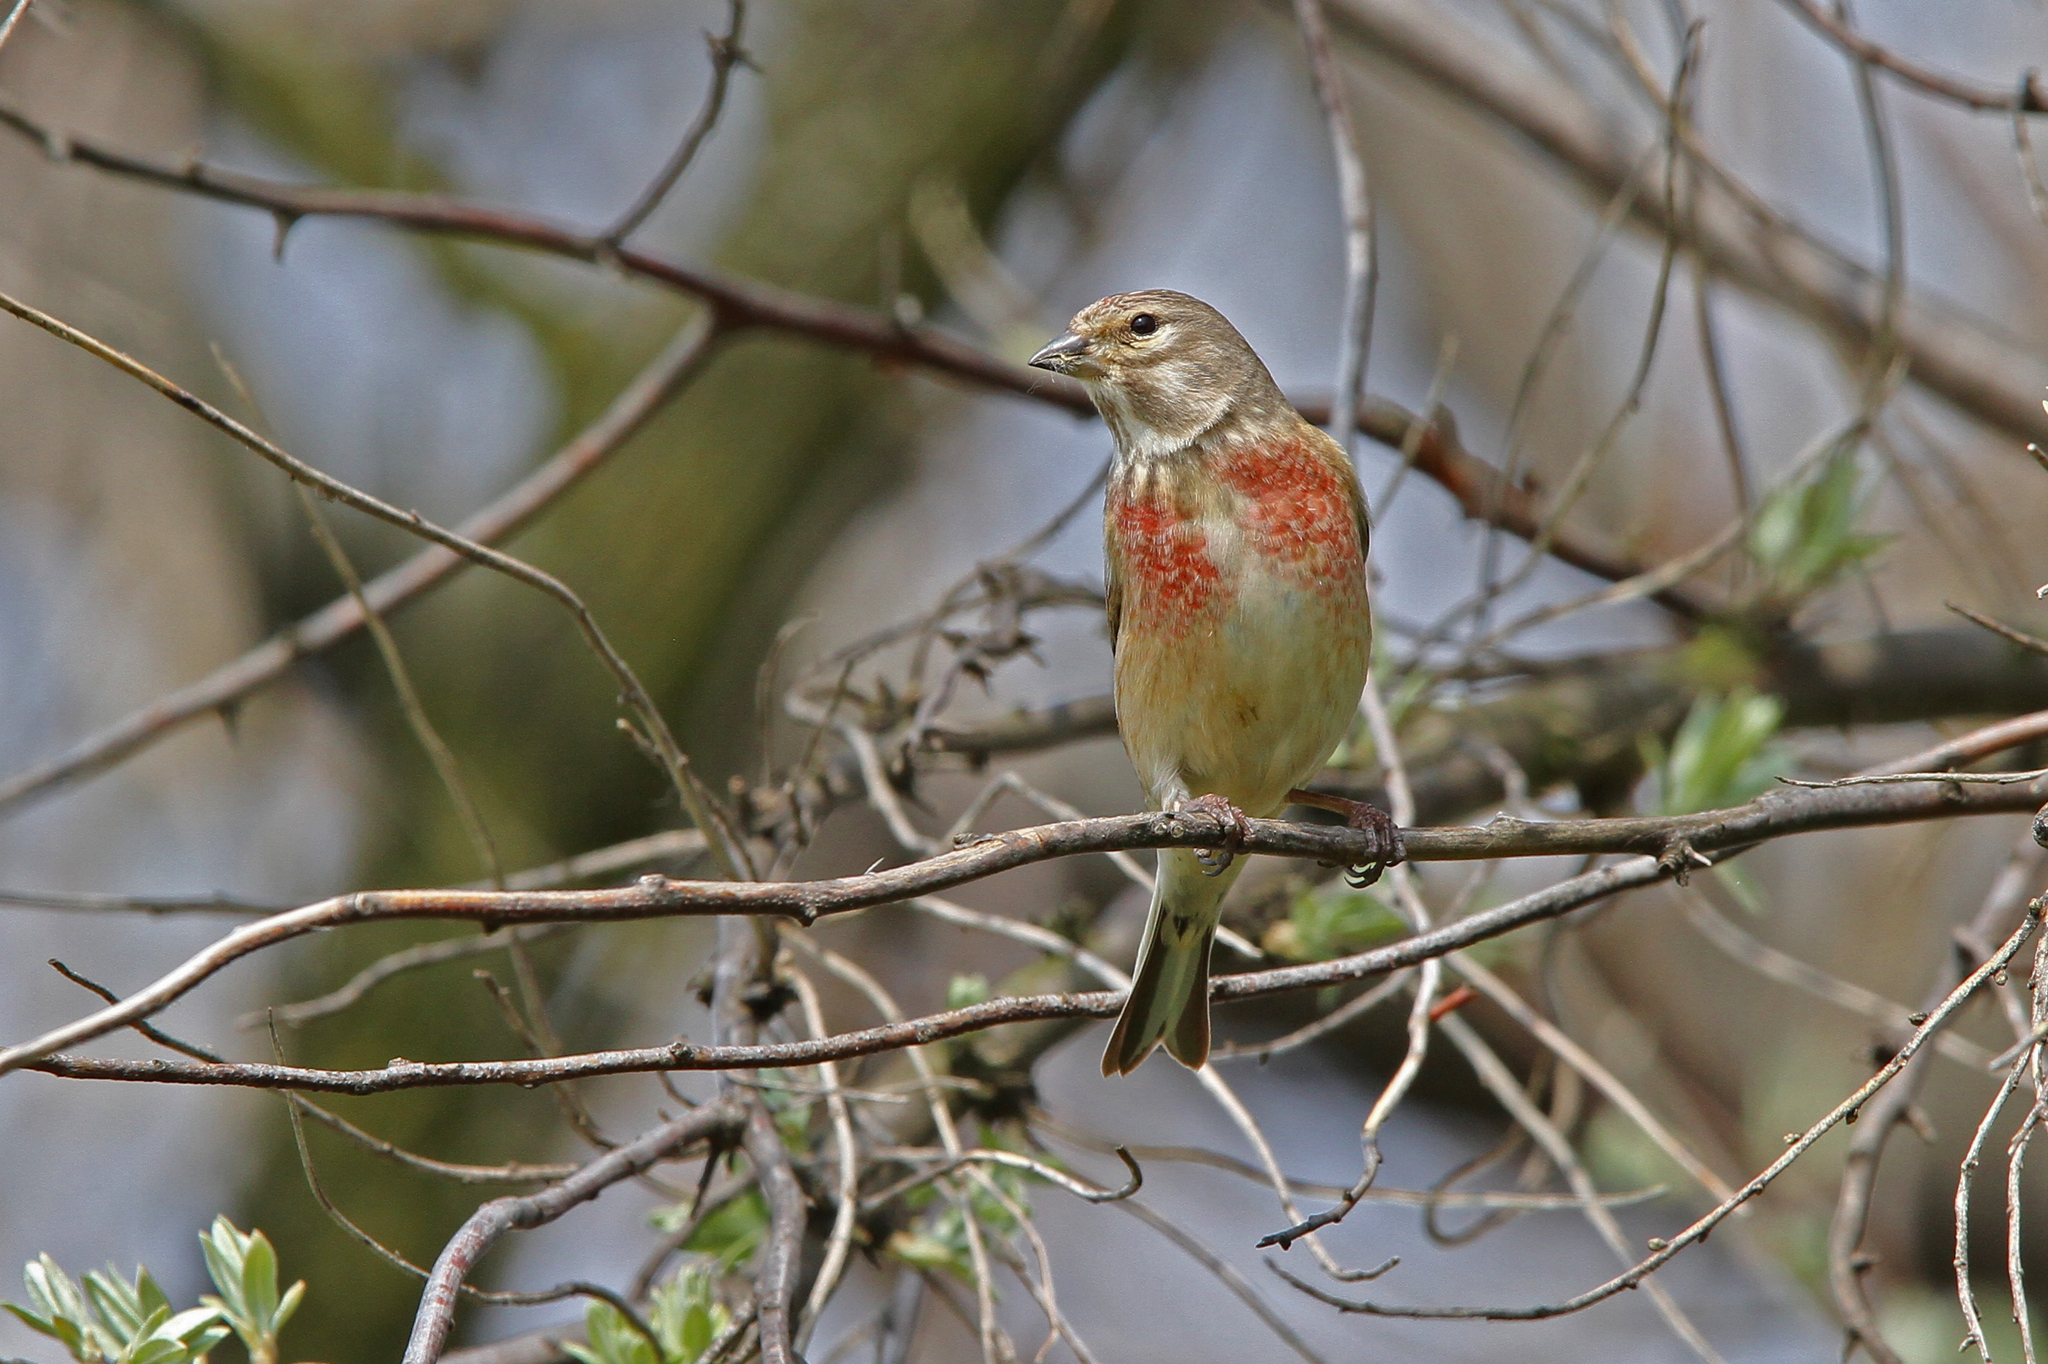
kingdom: Animalia
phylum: Chordata
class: Aves
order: Passeriformes
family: Fringillidae
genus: Linaria
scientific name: Linaria cannabina
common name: Common linnet
